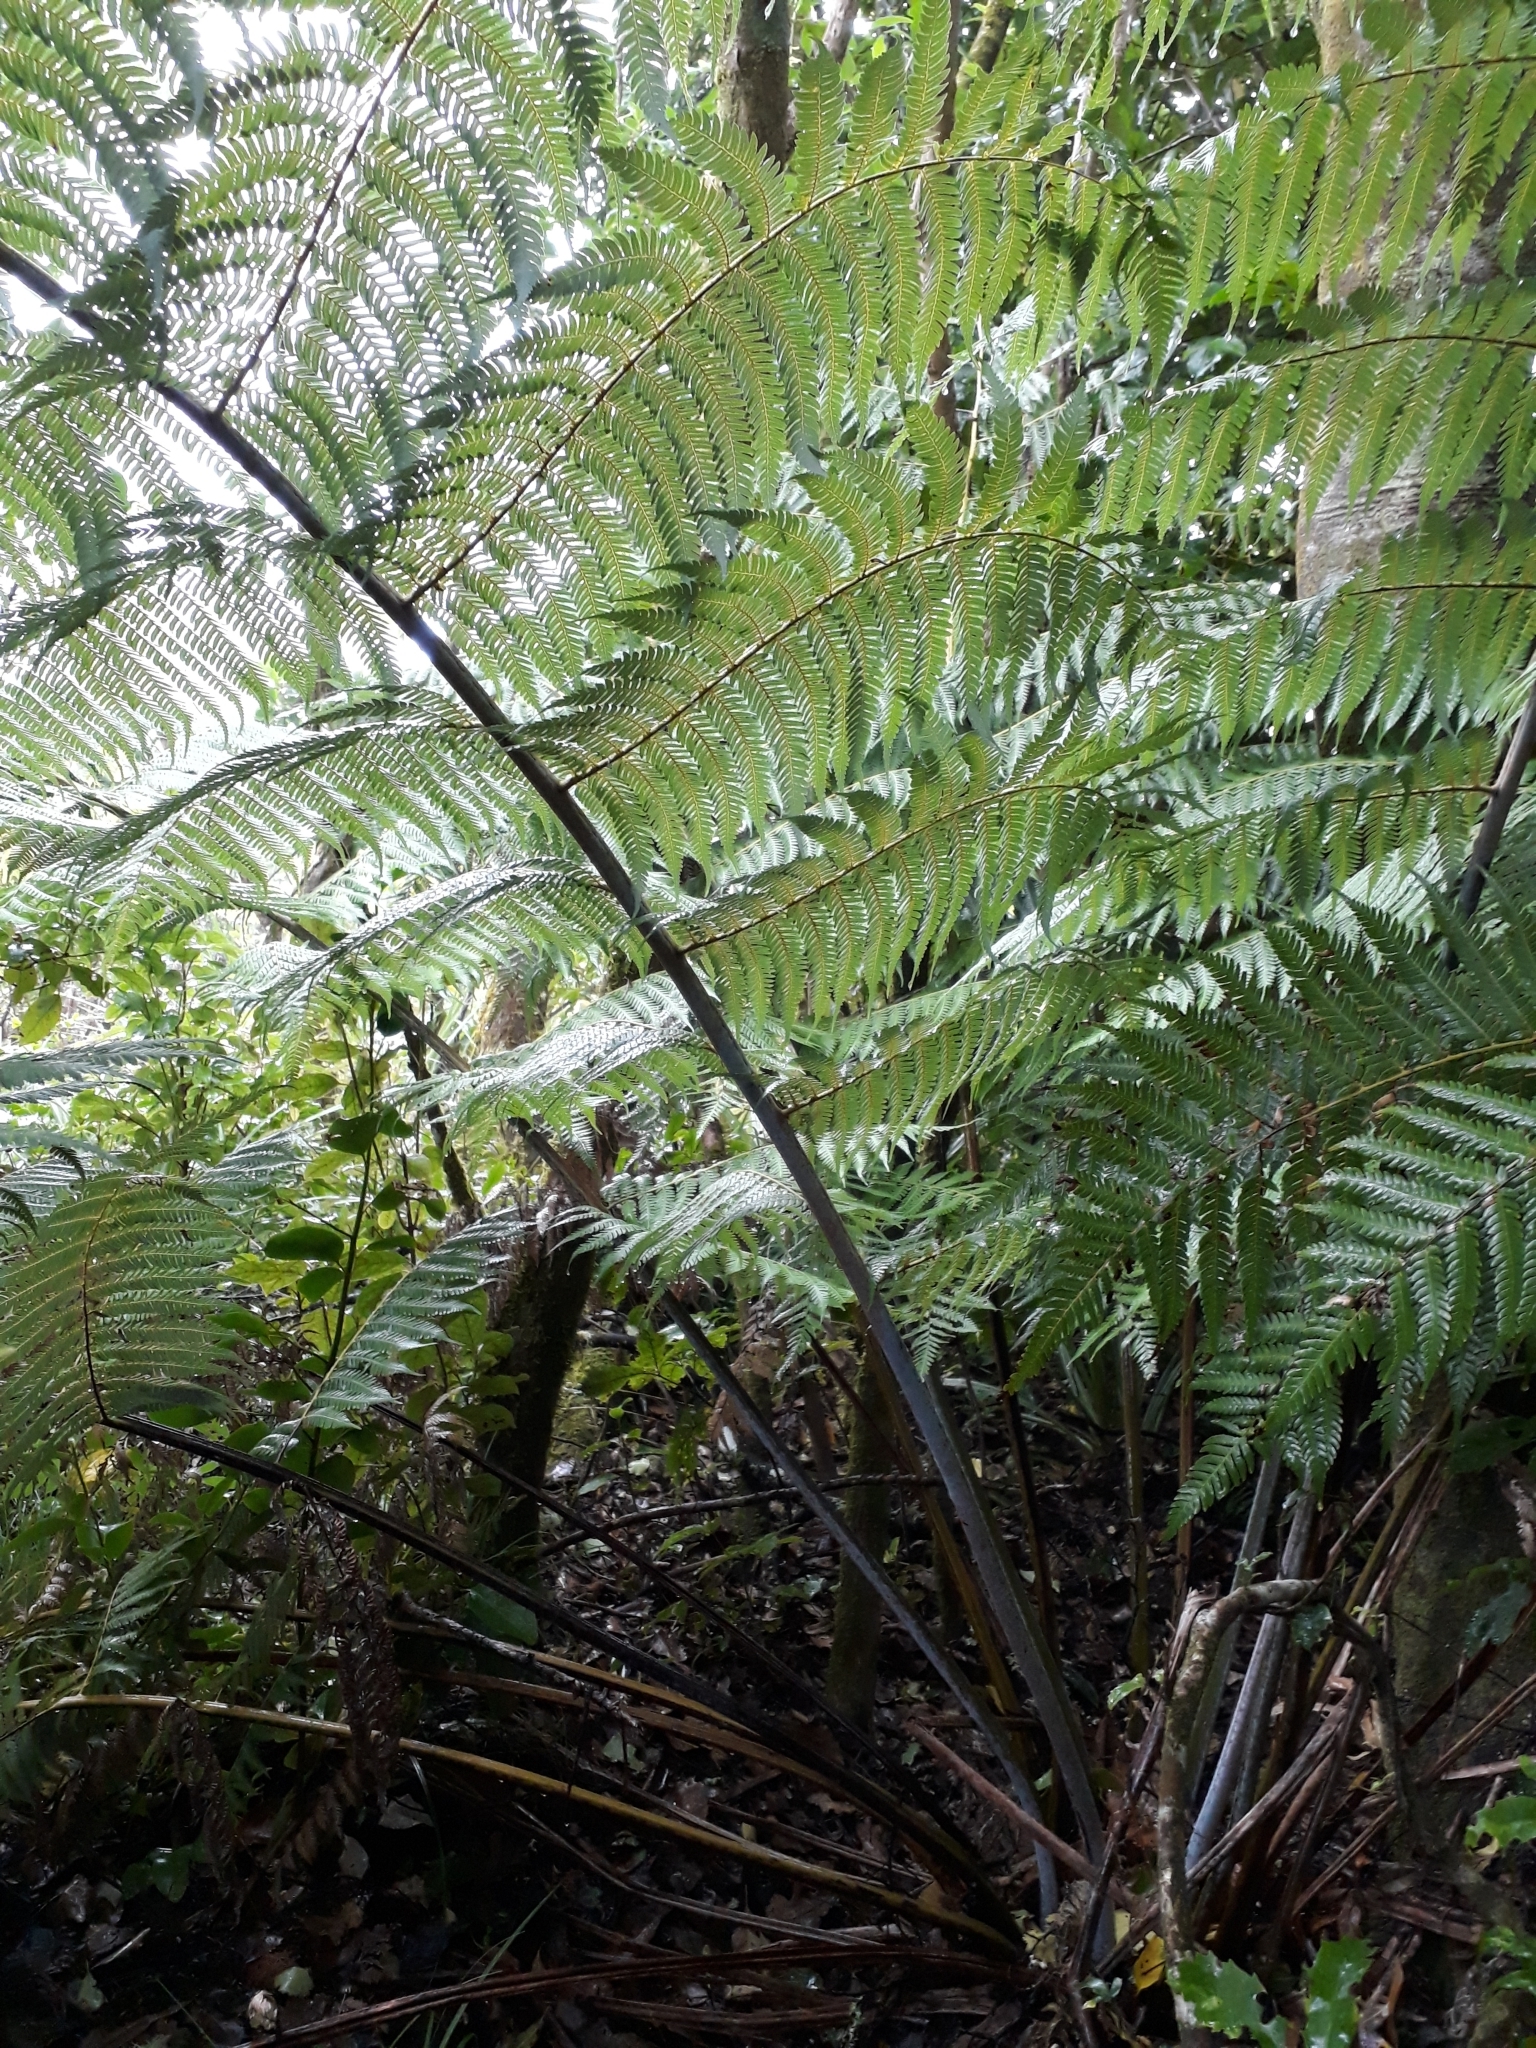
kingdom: Plantae
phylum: Tracheophyta
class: Polypodiopsida
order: Cyatheales
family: Cyatheaceae
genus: Alsophila
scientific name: Alsophila dealbata
